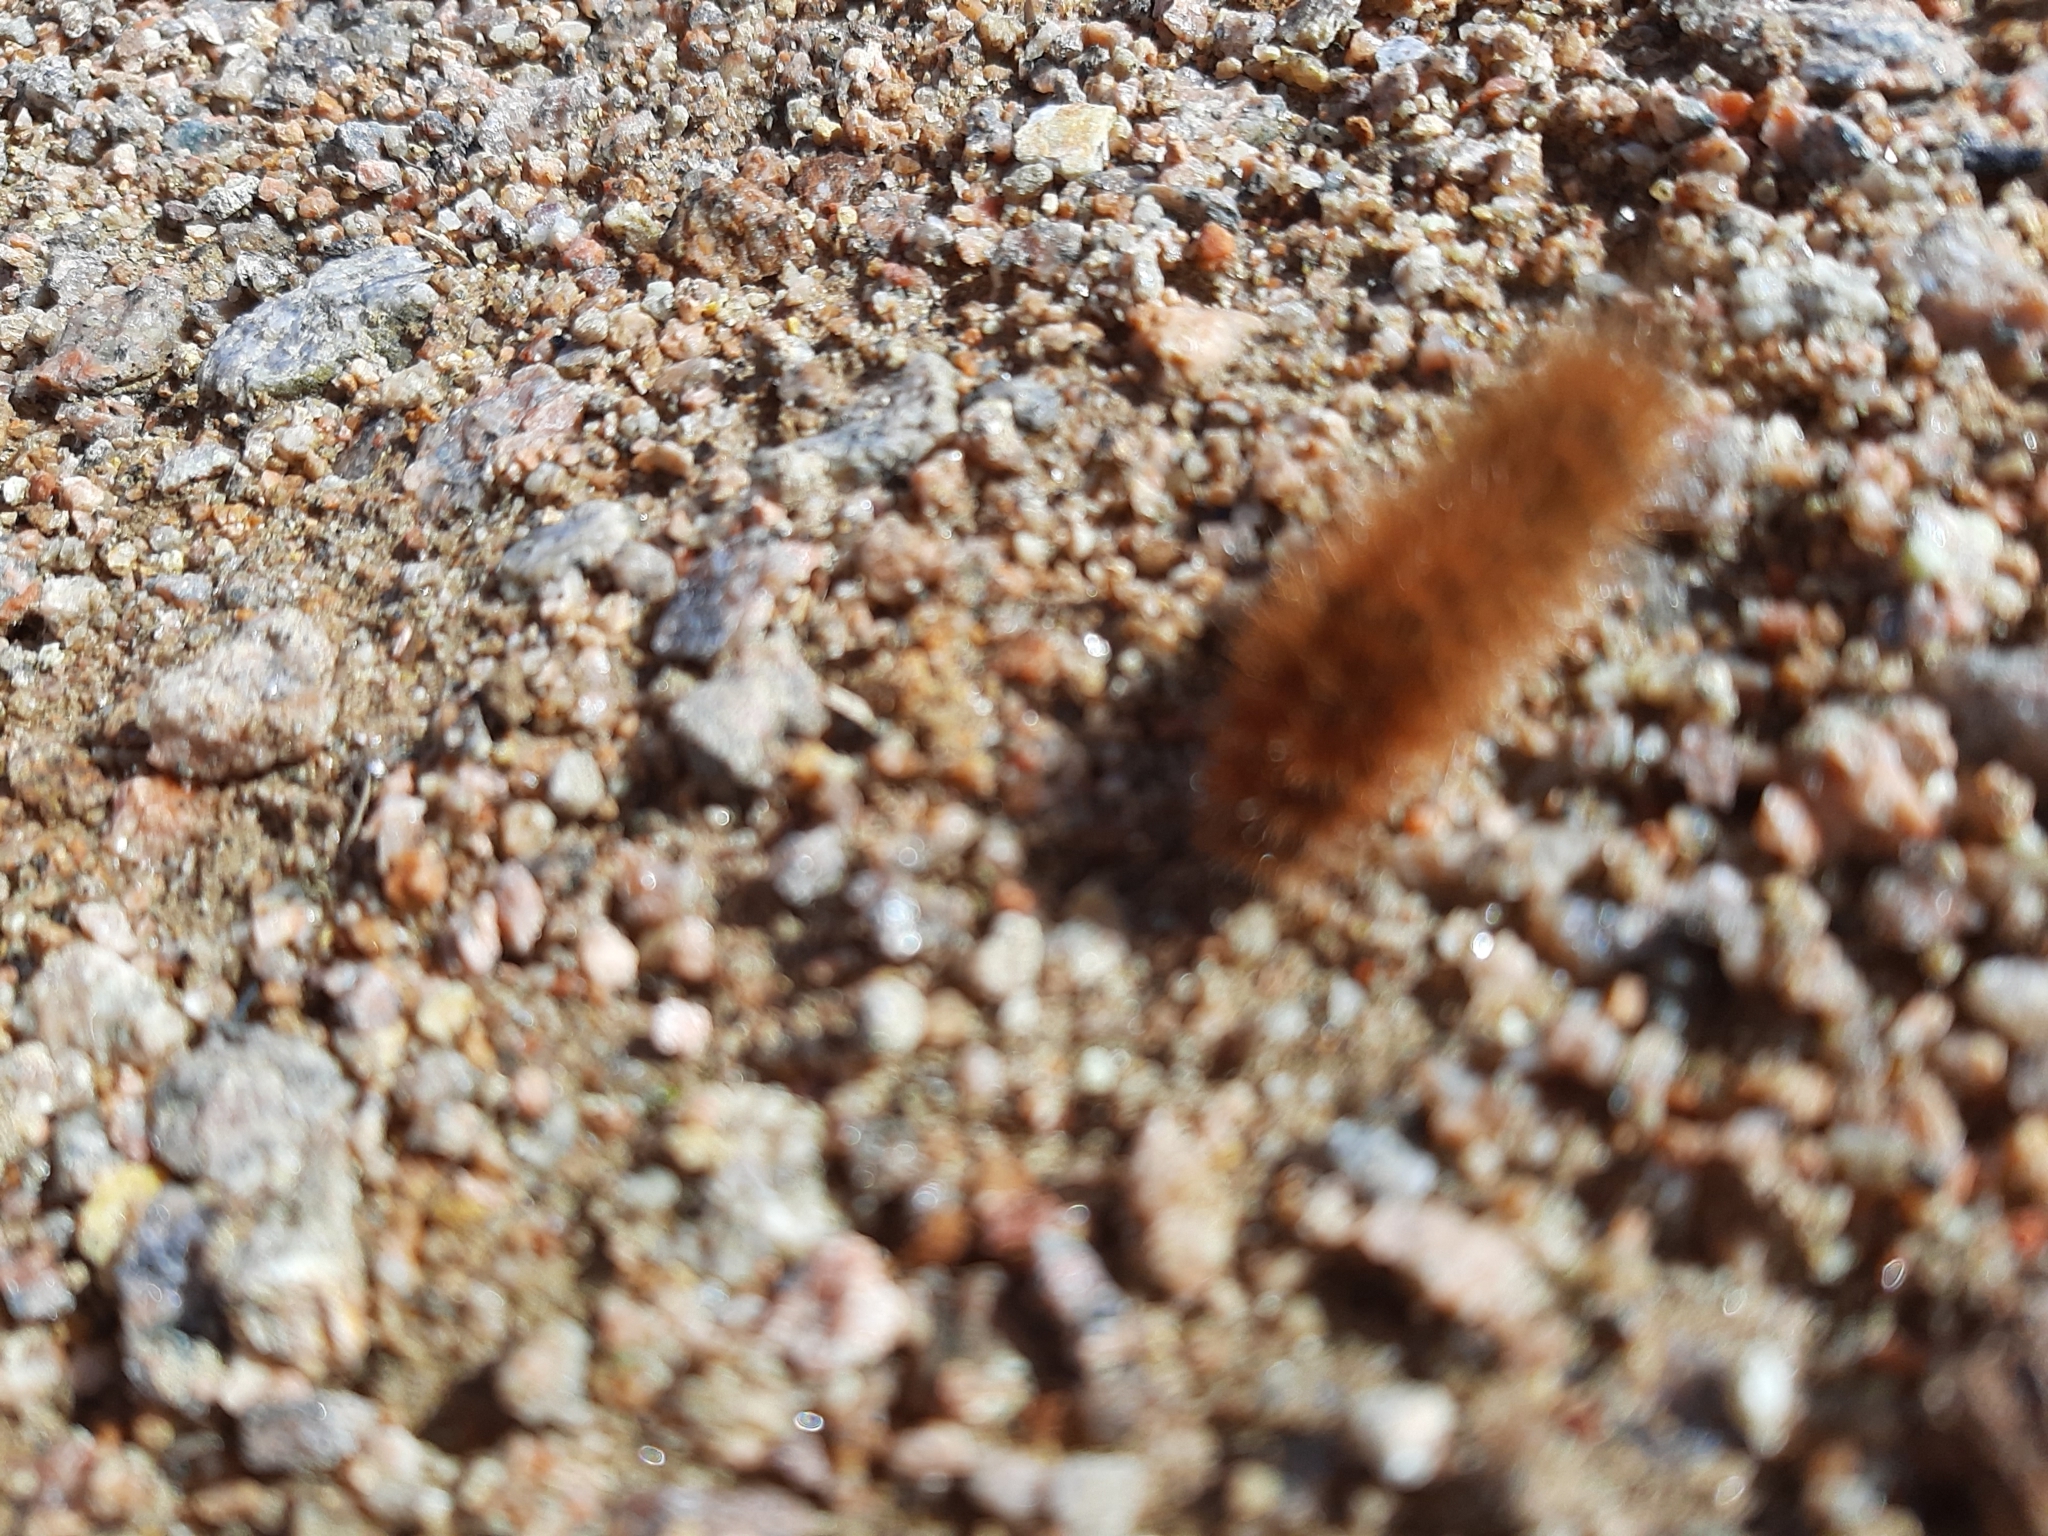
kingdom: Animalia
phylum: Arthropoda
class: Insecta
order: Lepidoptera
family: Erebidae
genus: Phragmatobia
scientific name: Phragmatobia fuliginosa
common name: Ruby tiger
